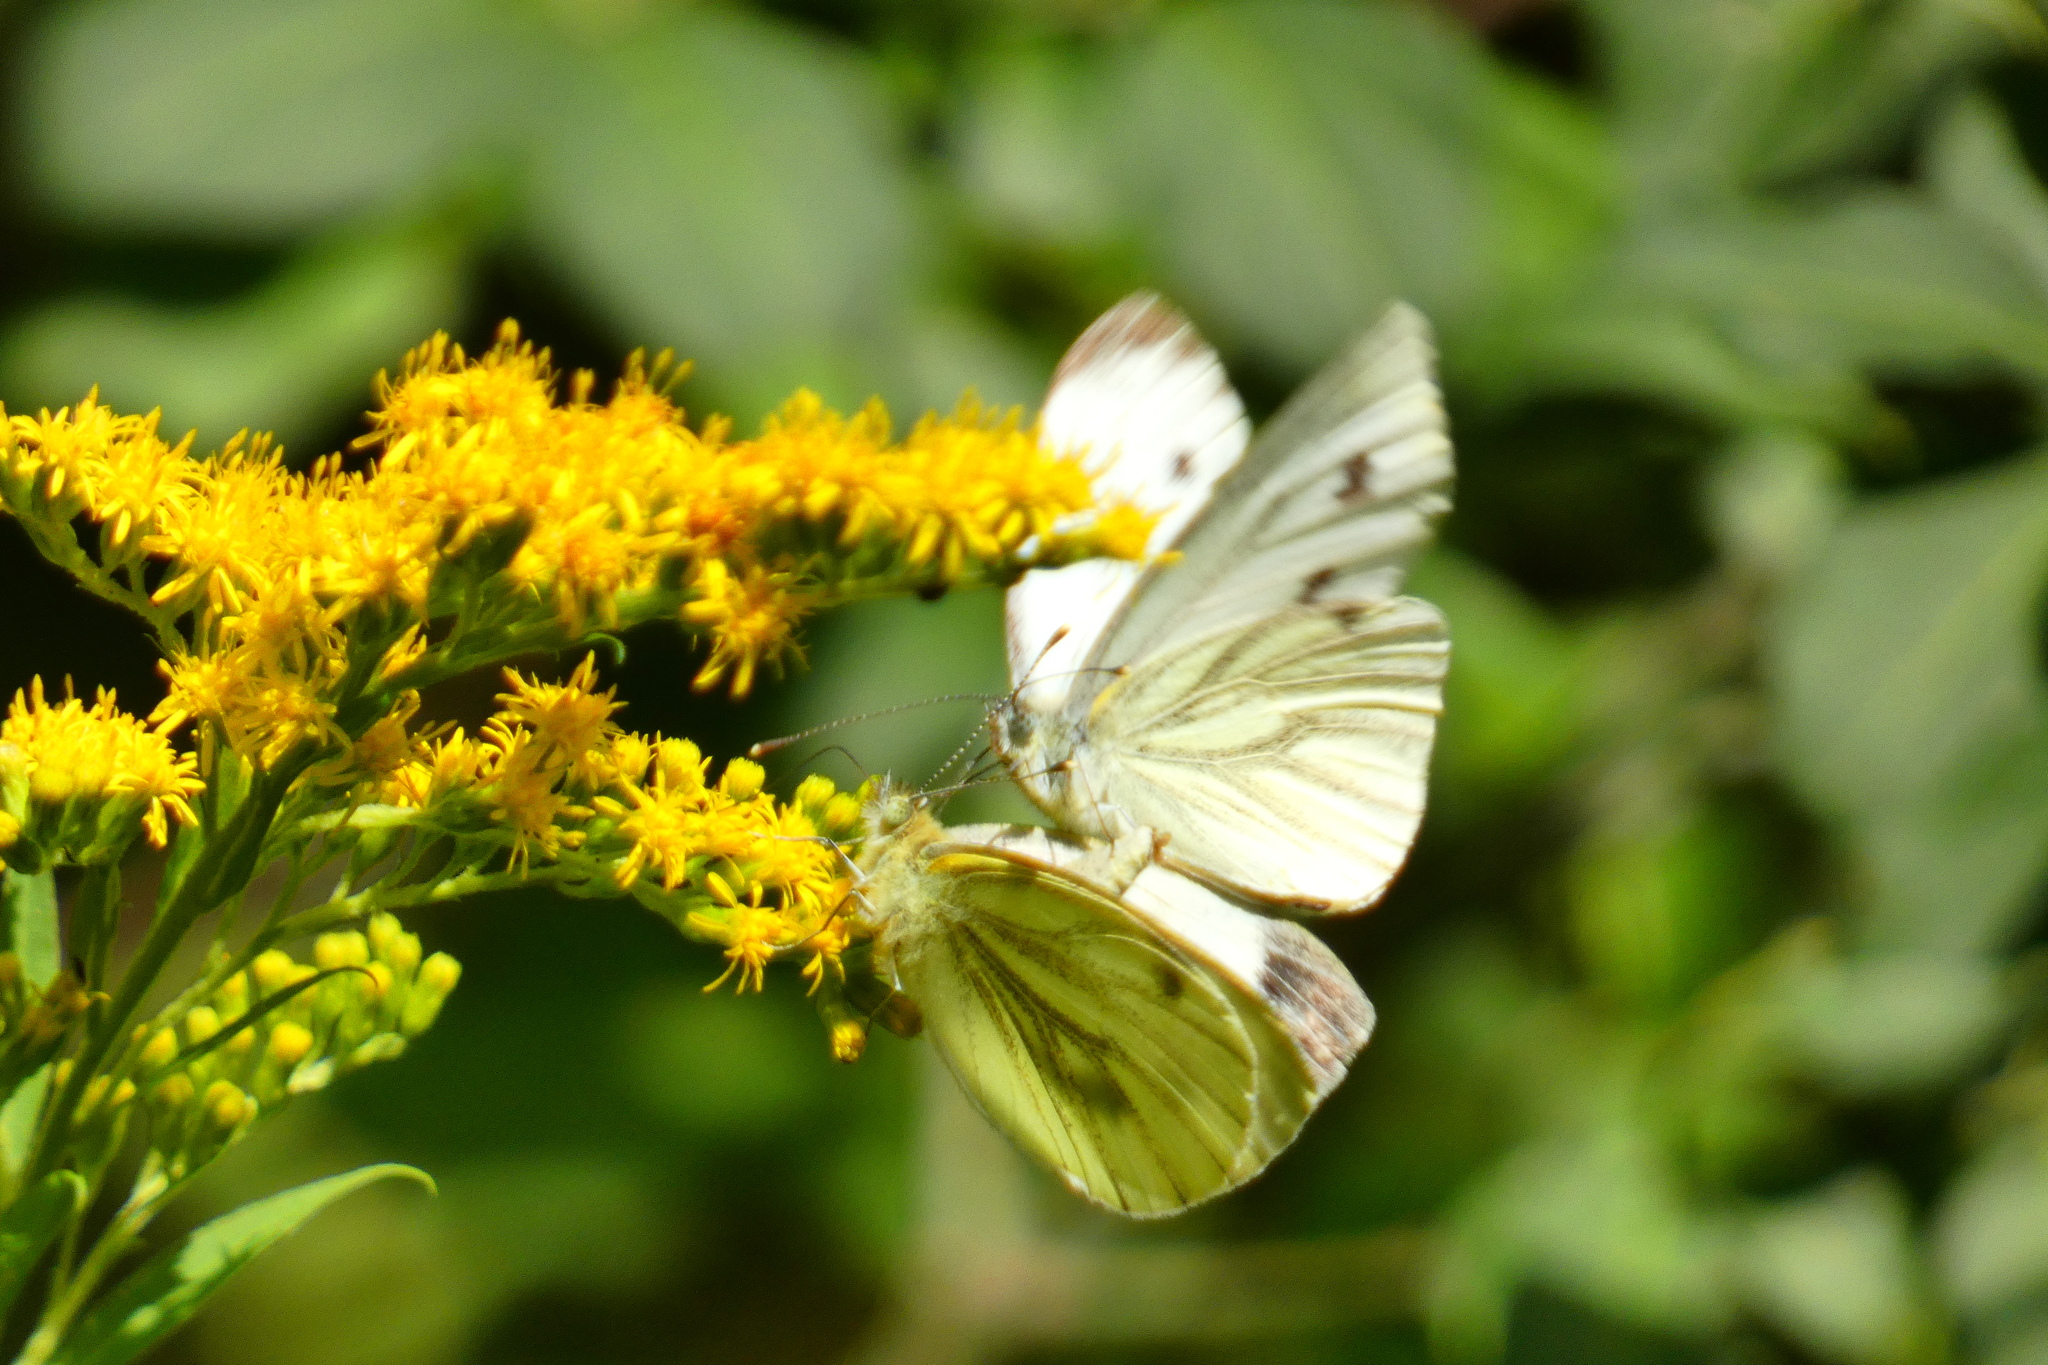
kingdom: Animalia
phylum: Arthropoda
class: Insecta
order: Lepidoptera
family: Pieridae
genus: Pieris
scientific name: Pieris napi
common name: Green-veined white
